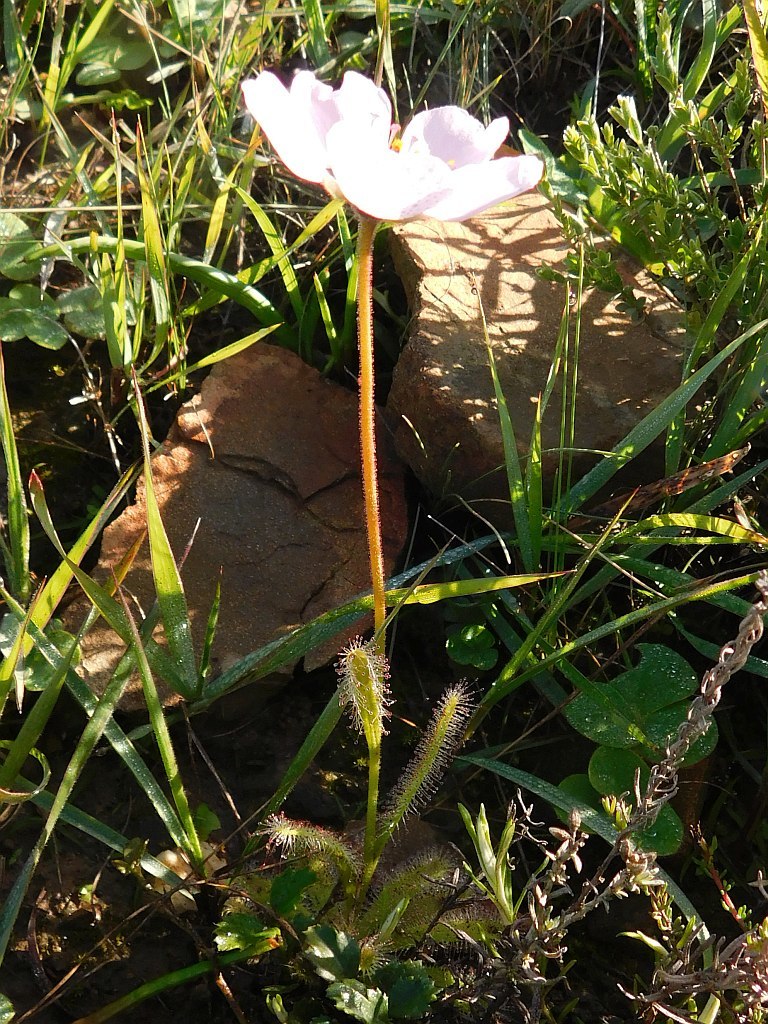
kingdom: Plantae
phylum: Tracheophyta
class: Magnoliopsida
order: Caryophyllales
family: Droseraceae
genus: Drosera
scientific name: Drosera cistiflora
